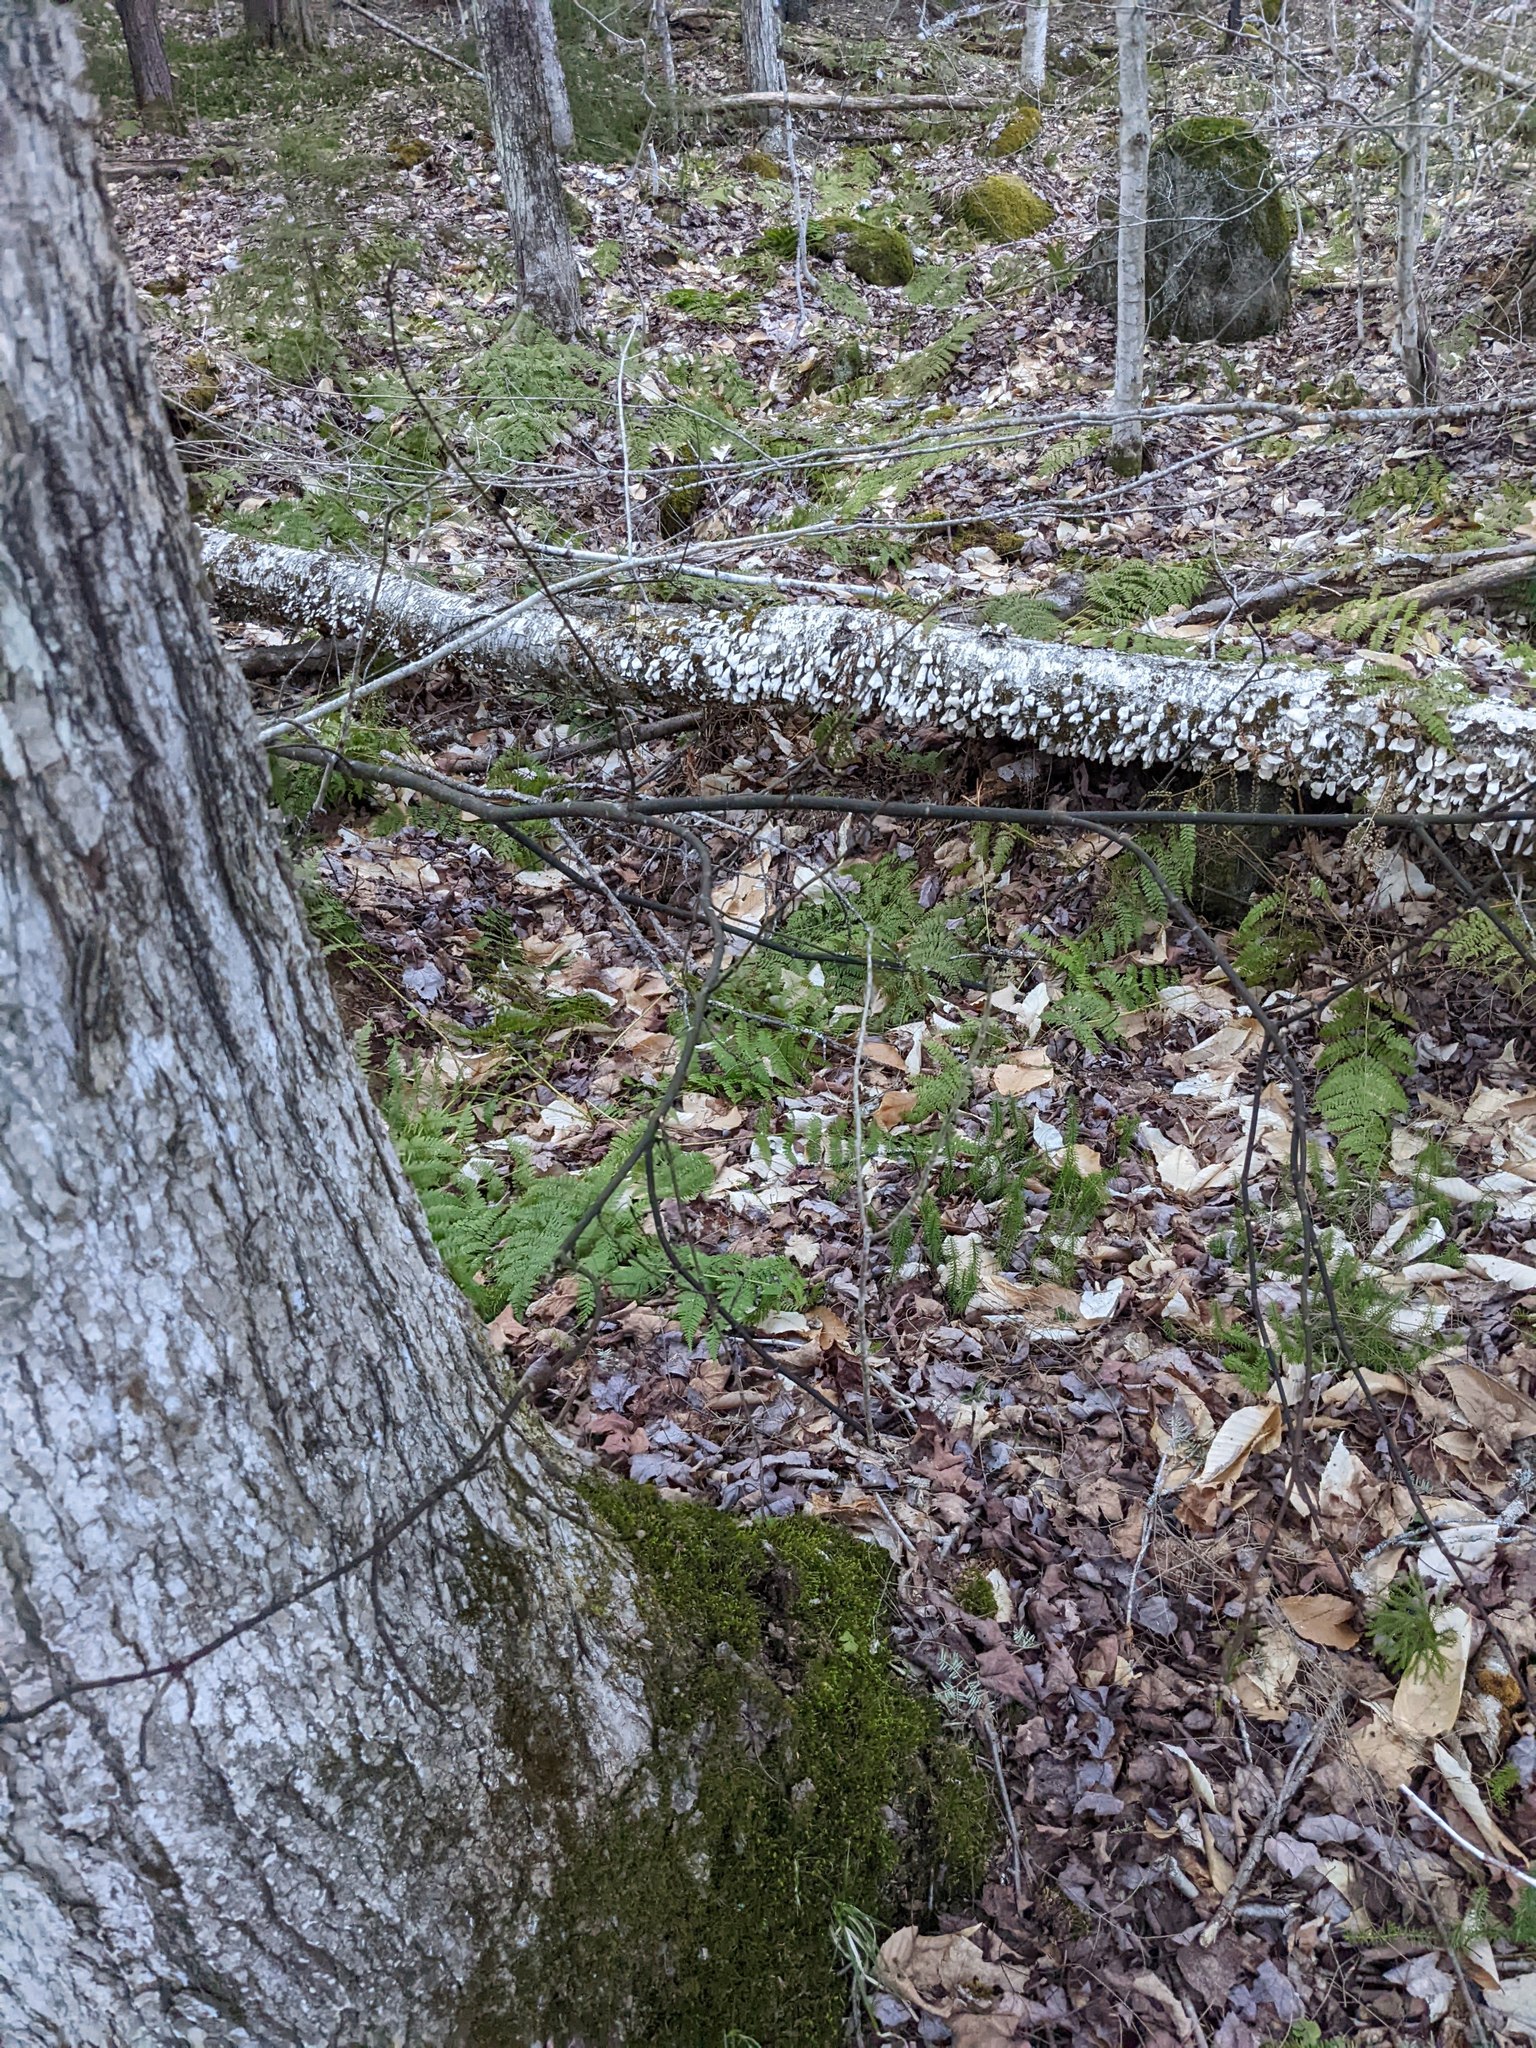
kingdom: Plantae
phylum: Tracheophyta
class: Magnoliopsida
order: Sapindales
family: Sapindaceae
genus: Acer
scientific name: Acer pensylvanicum
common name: Moosewood
